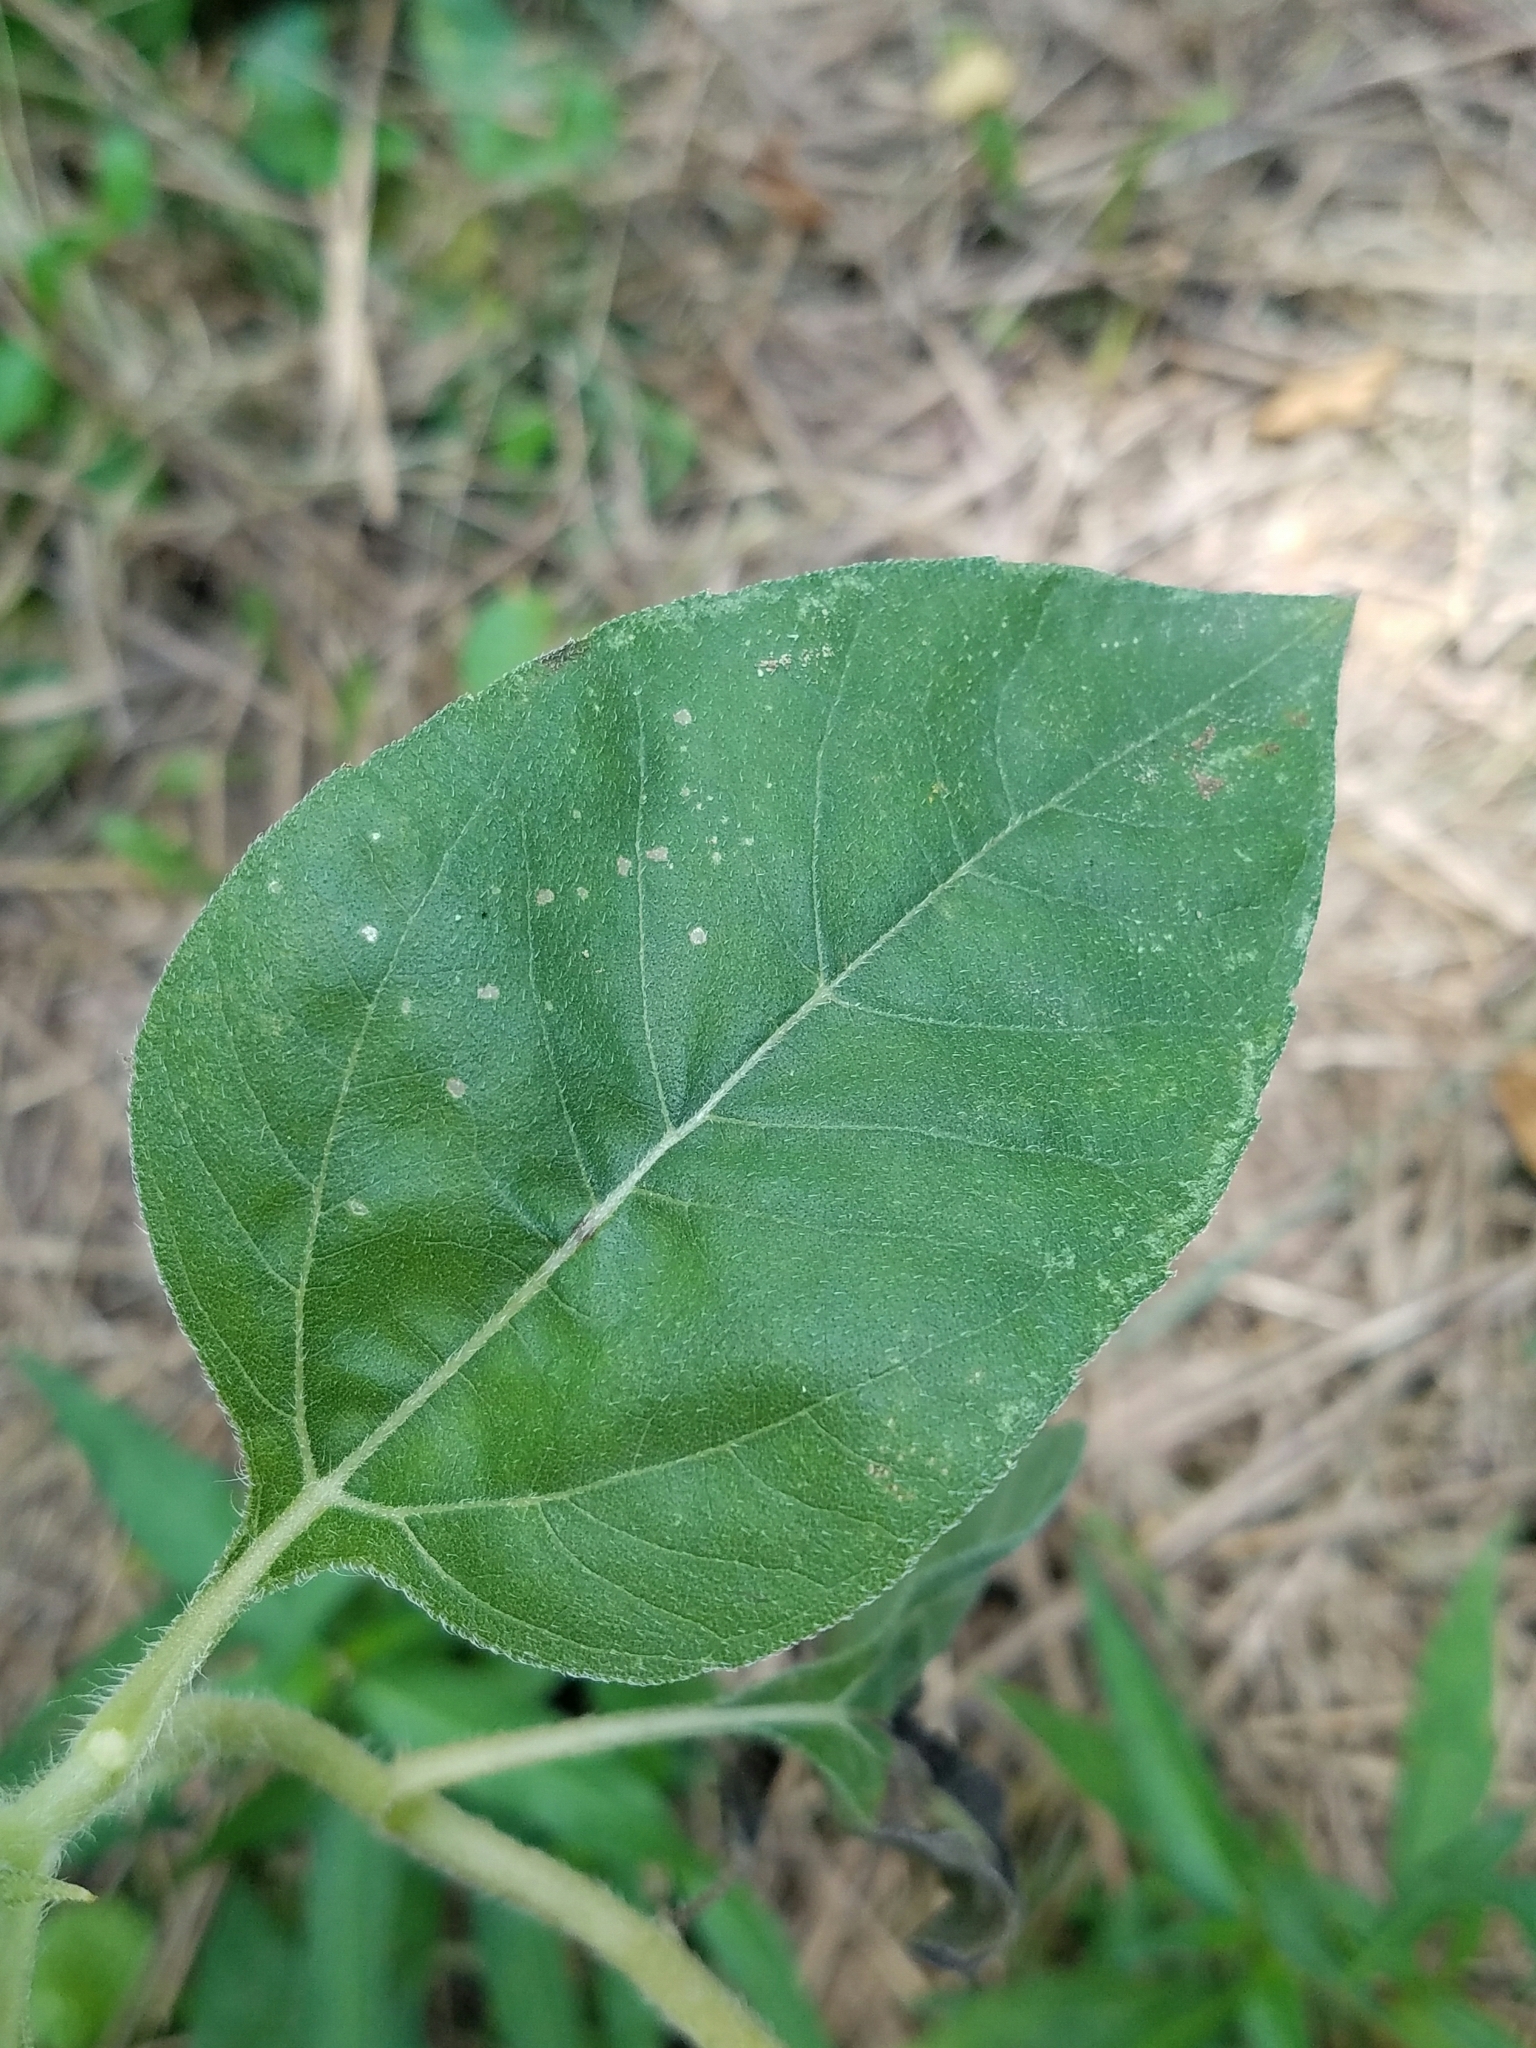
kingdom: Plantae
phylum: Tracheophyta
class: Magnoliopsida
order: Asterales
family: Asteraceae
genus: Helianthus
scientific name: Helianthus annuus
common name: Sunflower
